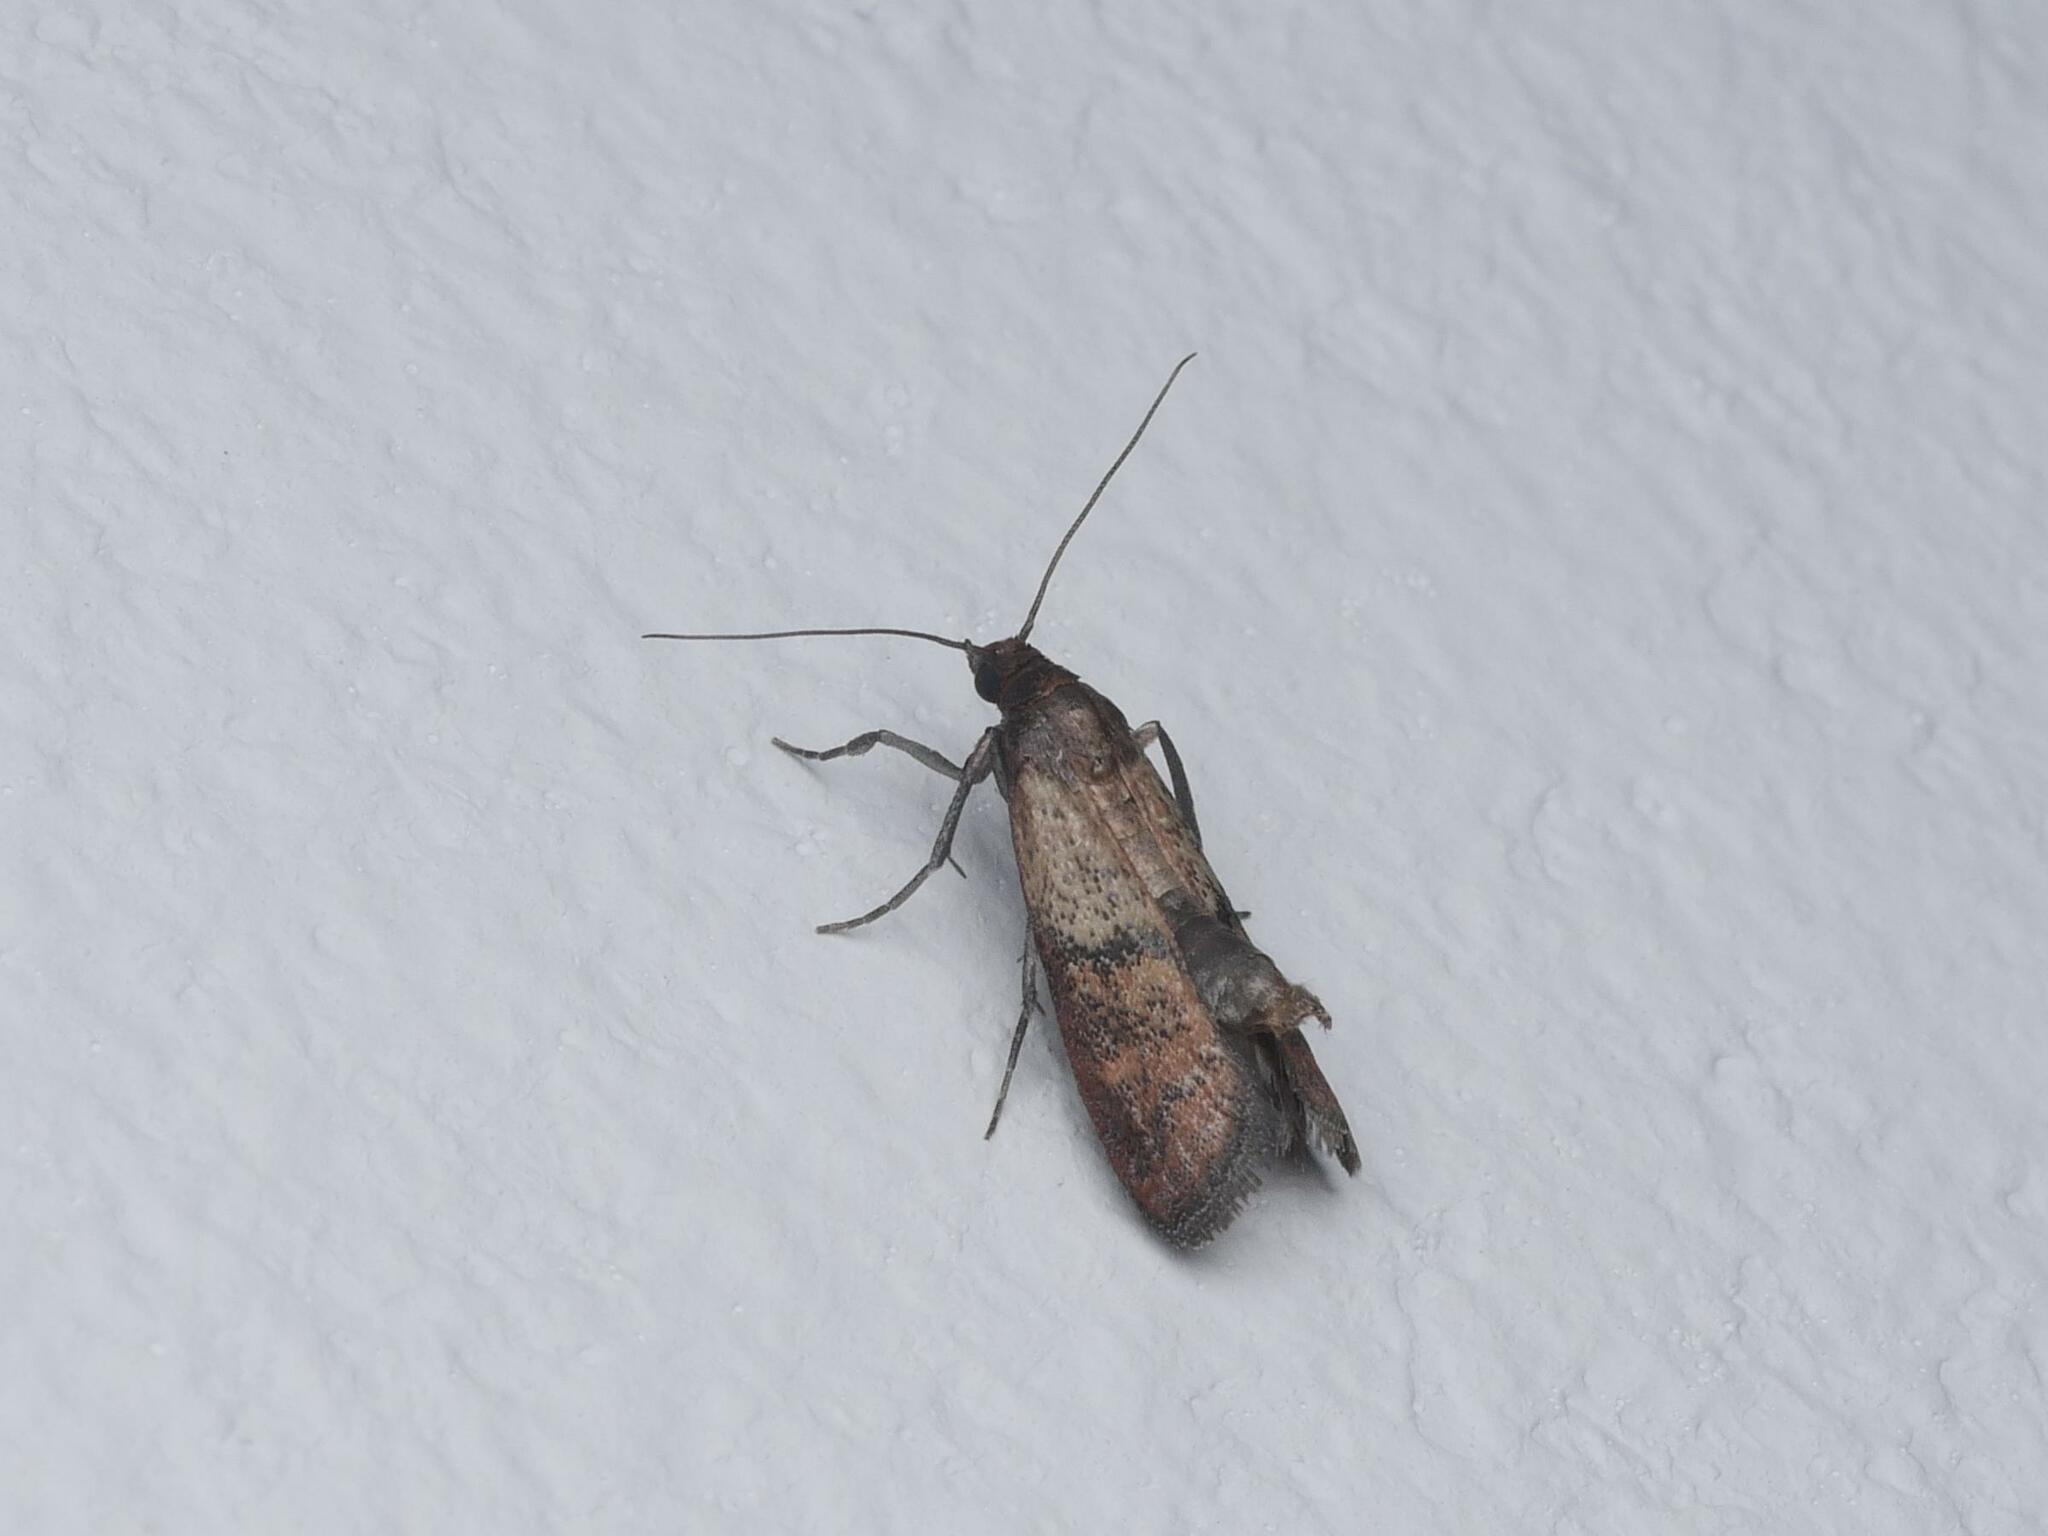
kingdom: Animalia
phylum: Arthropoda
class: Insecta
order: Lepidoptera
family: Pyralidae
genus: Plodia
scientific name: Plodia interpunctella
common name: Indian meal moth
